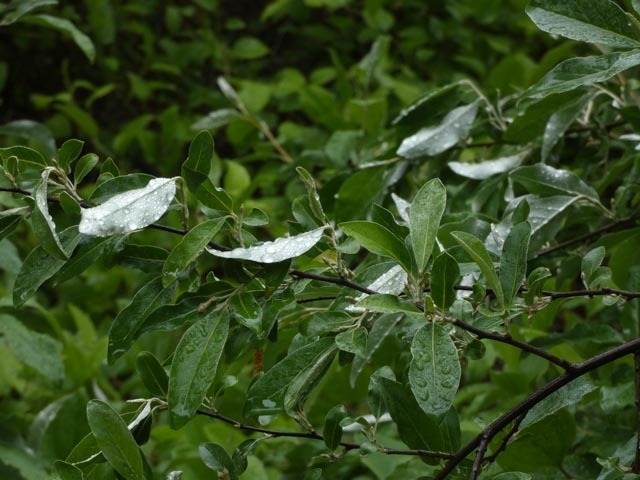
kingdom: Plantae
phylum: Tracheophyta
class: Magnoliopsida
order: Rosales
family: Elaeagnaceae
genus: Elaeagnus
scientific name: Elaeagnus umbellata
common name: Autumn olive
